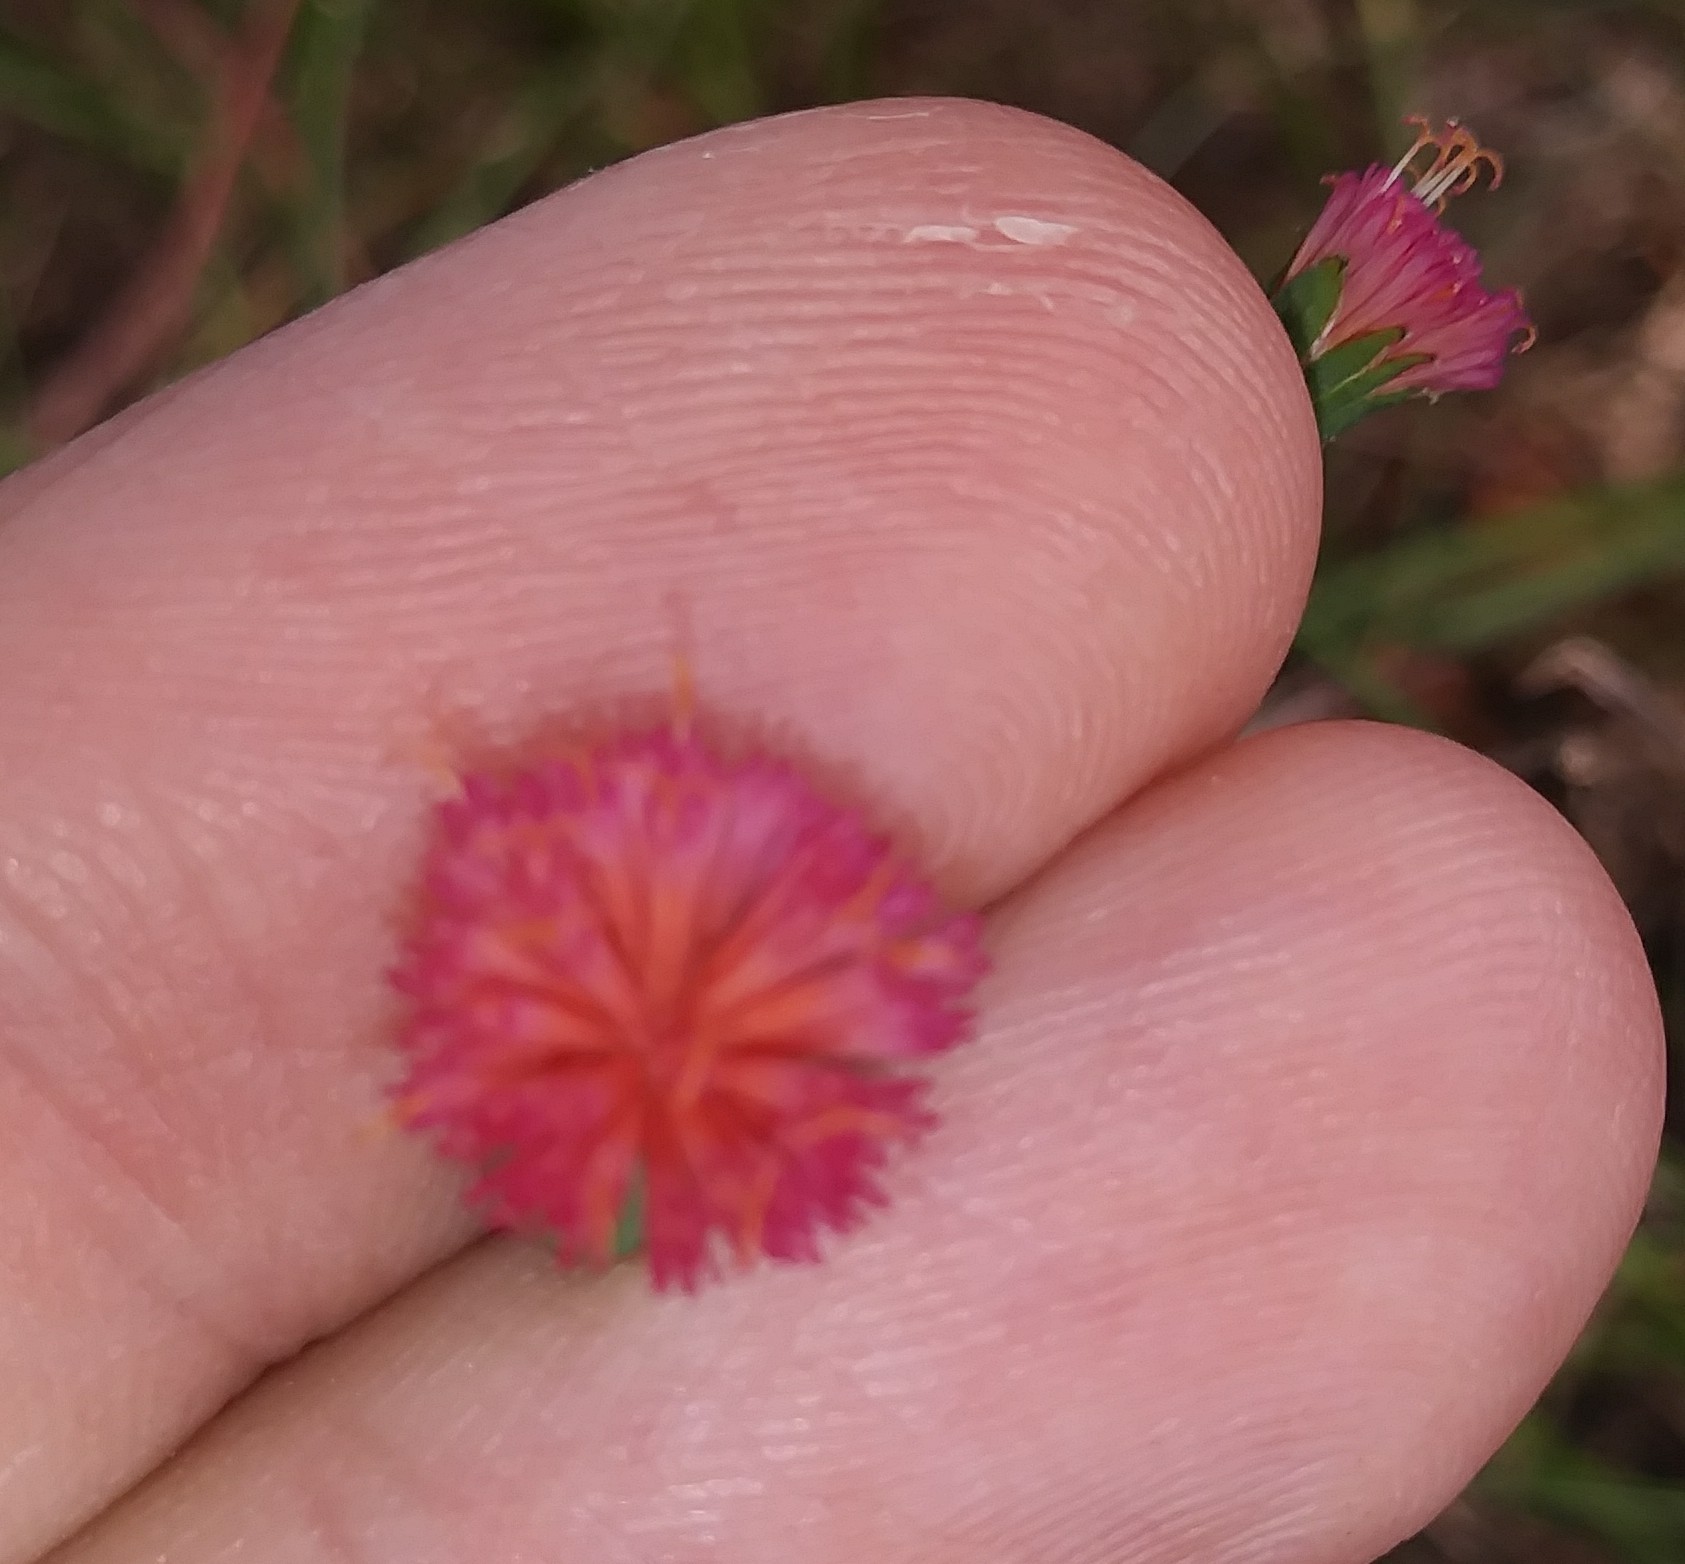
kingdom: Plantae
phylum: Tracheophyta
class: Magnoliopsida
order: Asterales
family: Asteraceae
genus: Emilia
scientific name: Emilia fosbergii
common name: Florida tasselflower
